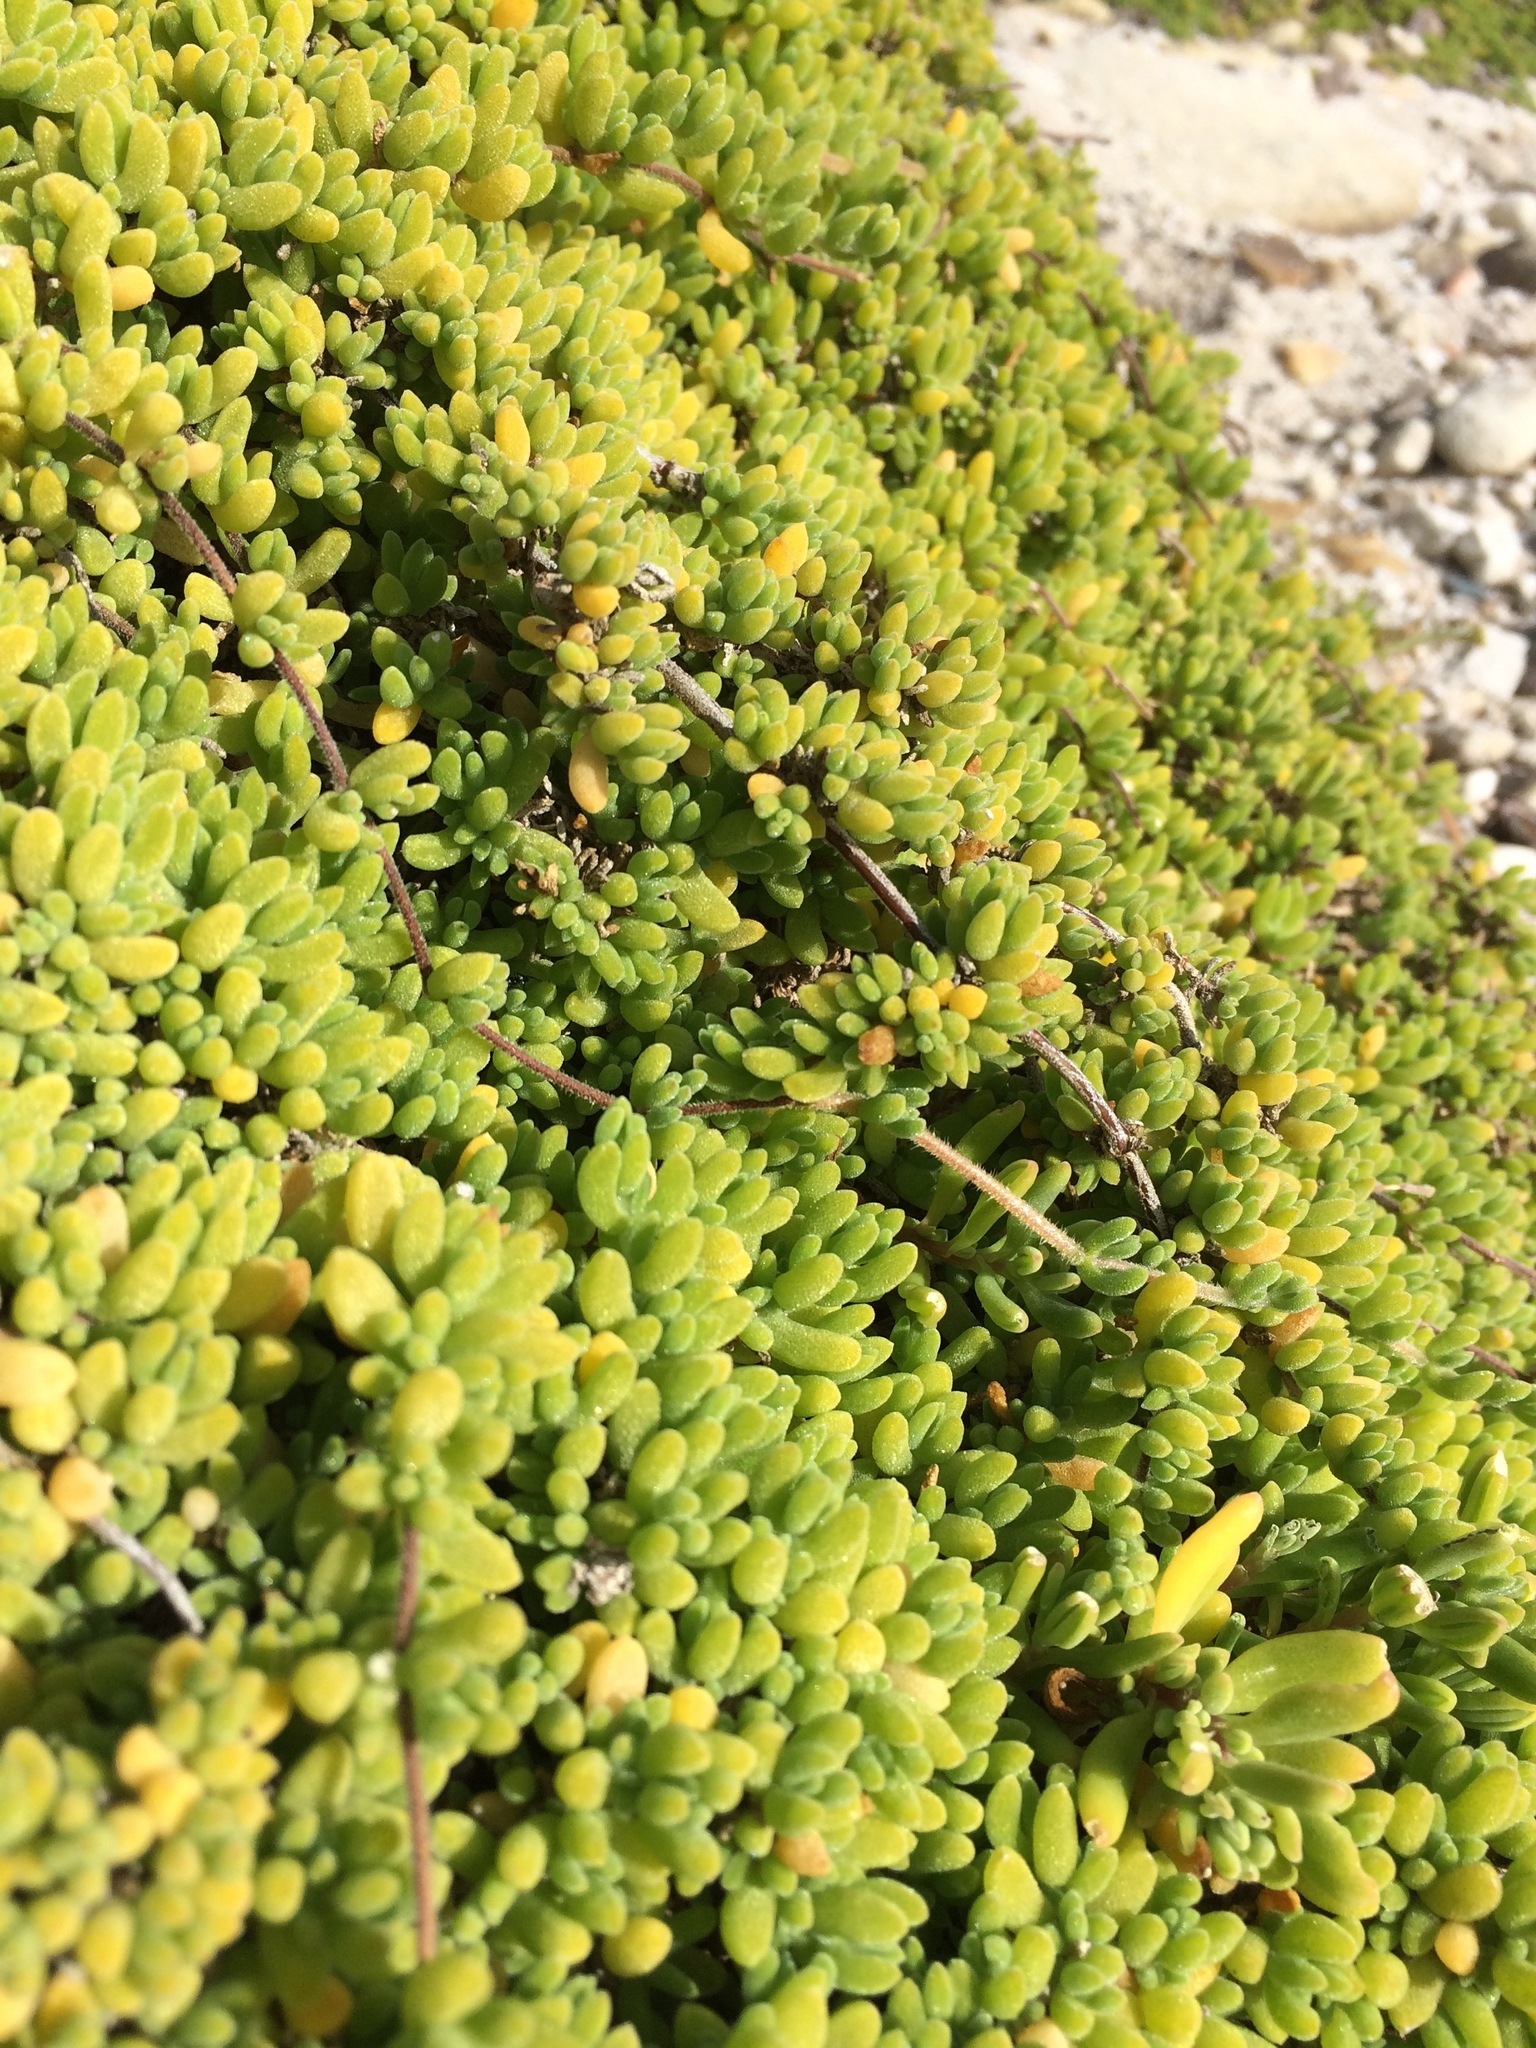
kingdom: Plantae
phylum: Tracheophyta
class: Magnoliopsida
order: Caryophyllales
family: Aizoaceae
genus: Drosanthemum
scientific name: Drosanthemum candens
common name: Rodondo-creeper
